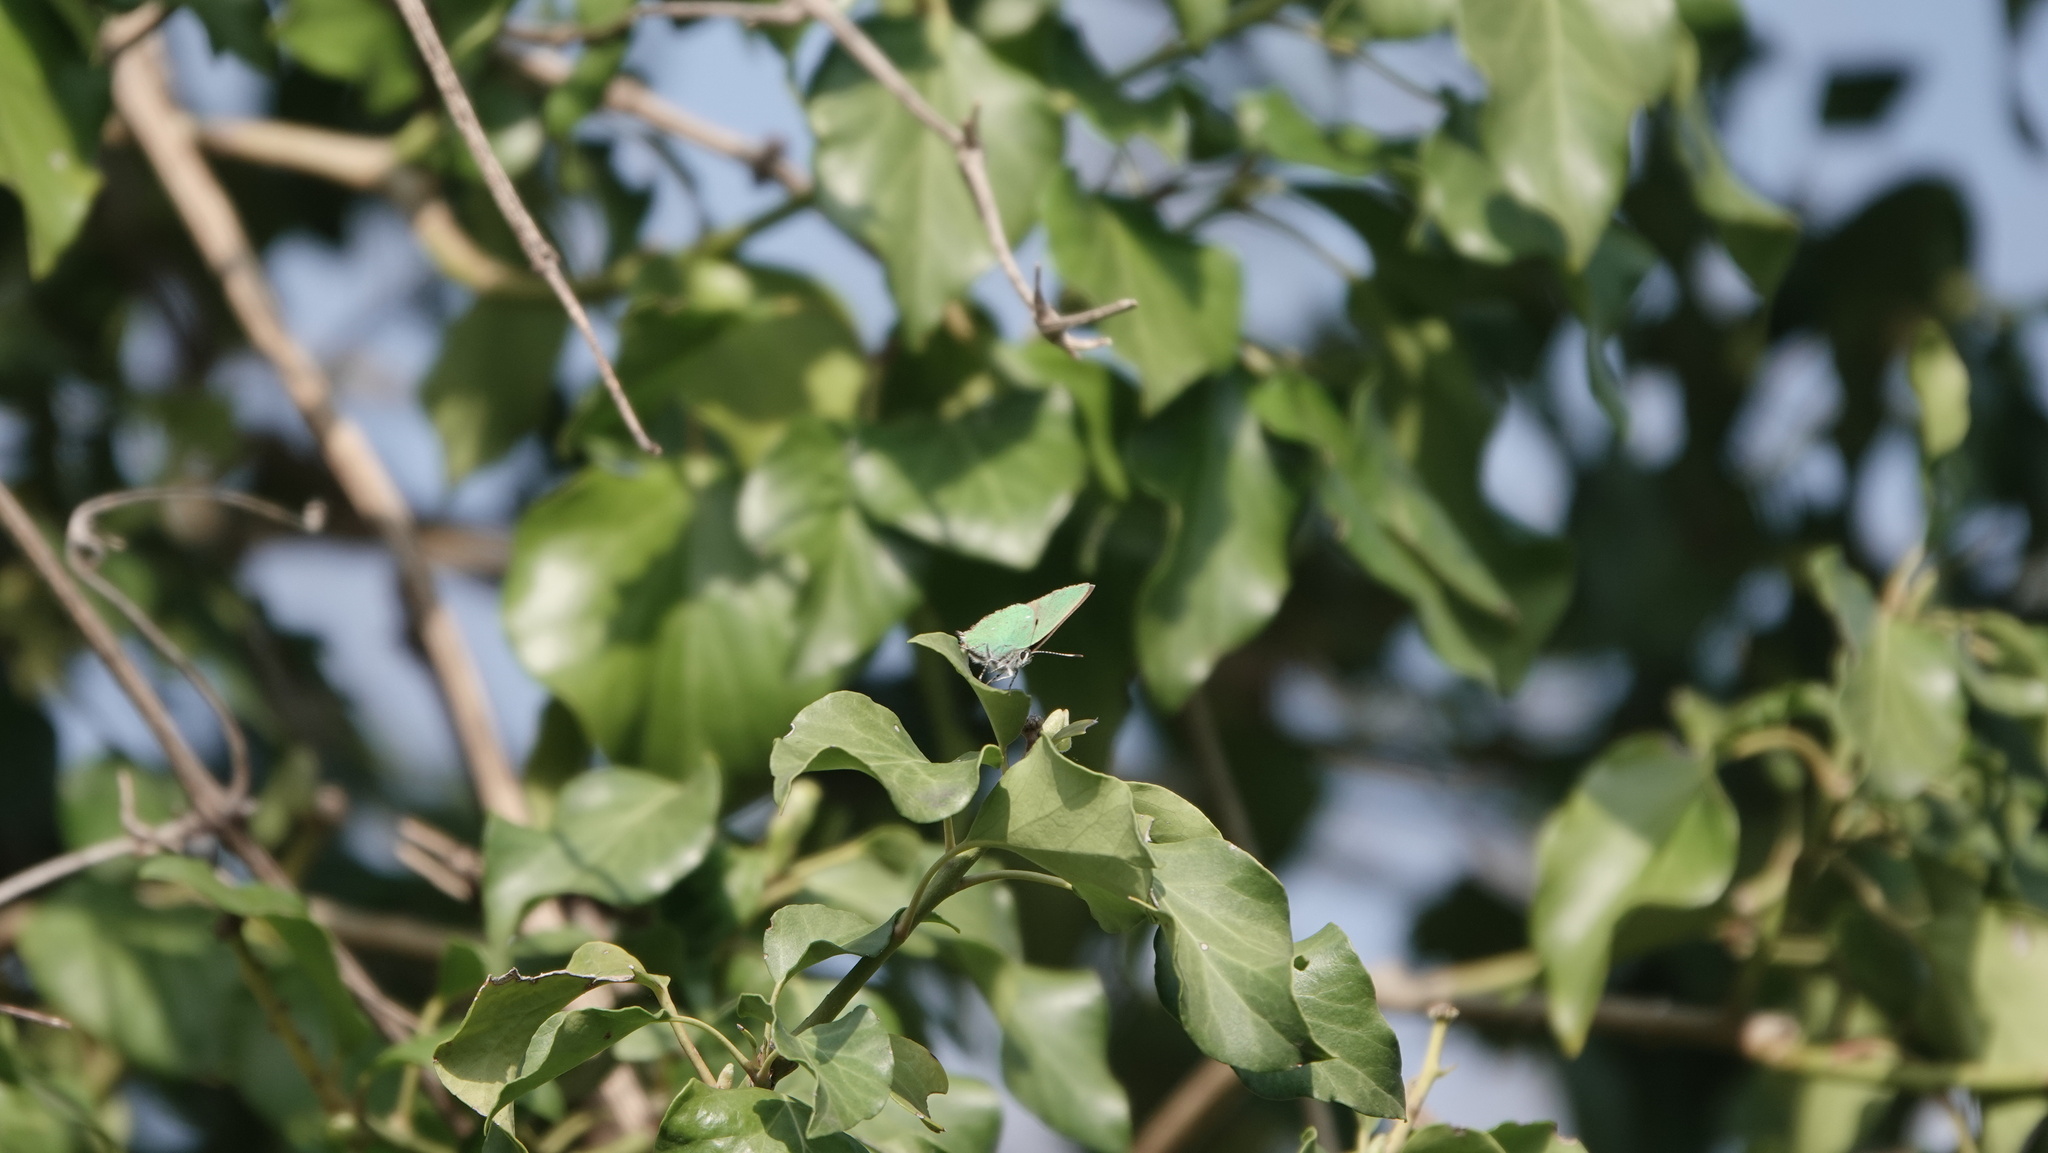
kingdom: Animalia
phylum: Arthropoda
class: Insecta
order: Lepidoptera
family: Lycaenidae
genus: Callophrys
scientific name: Callophrys rubi
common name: Green hairstreak
